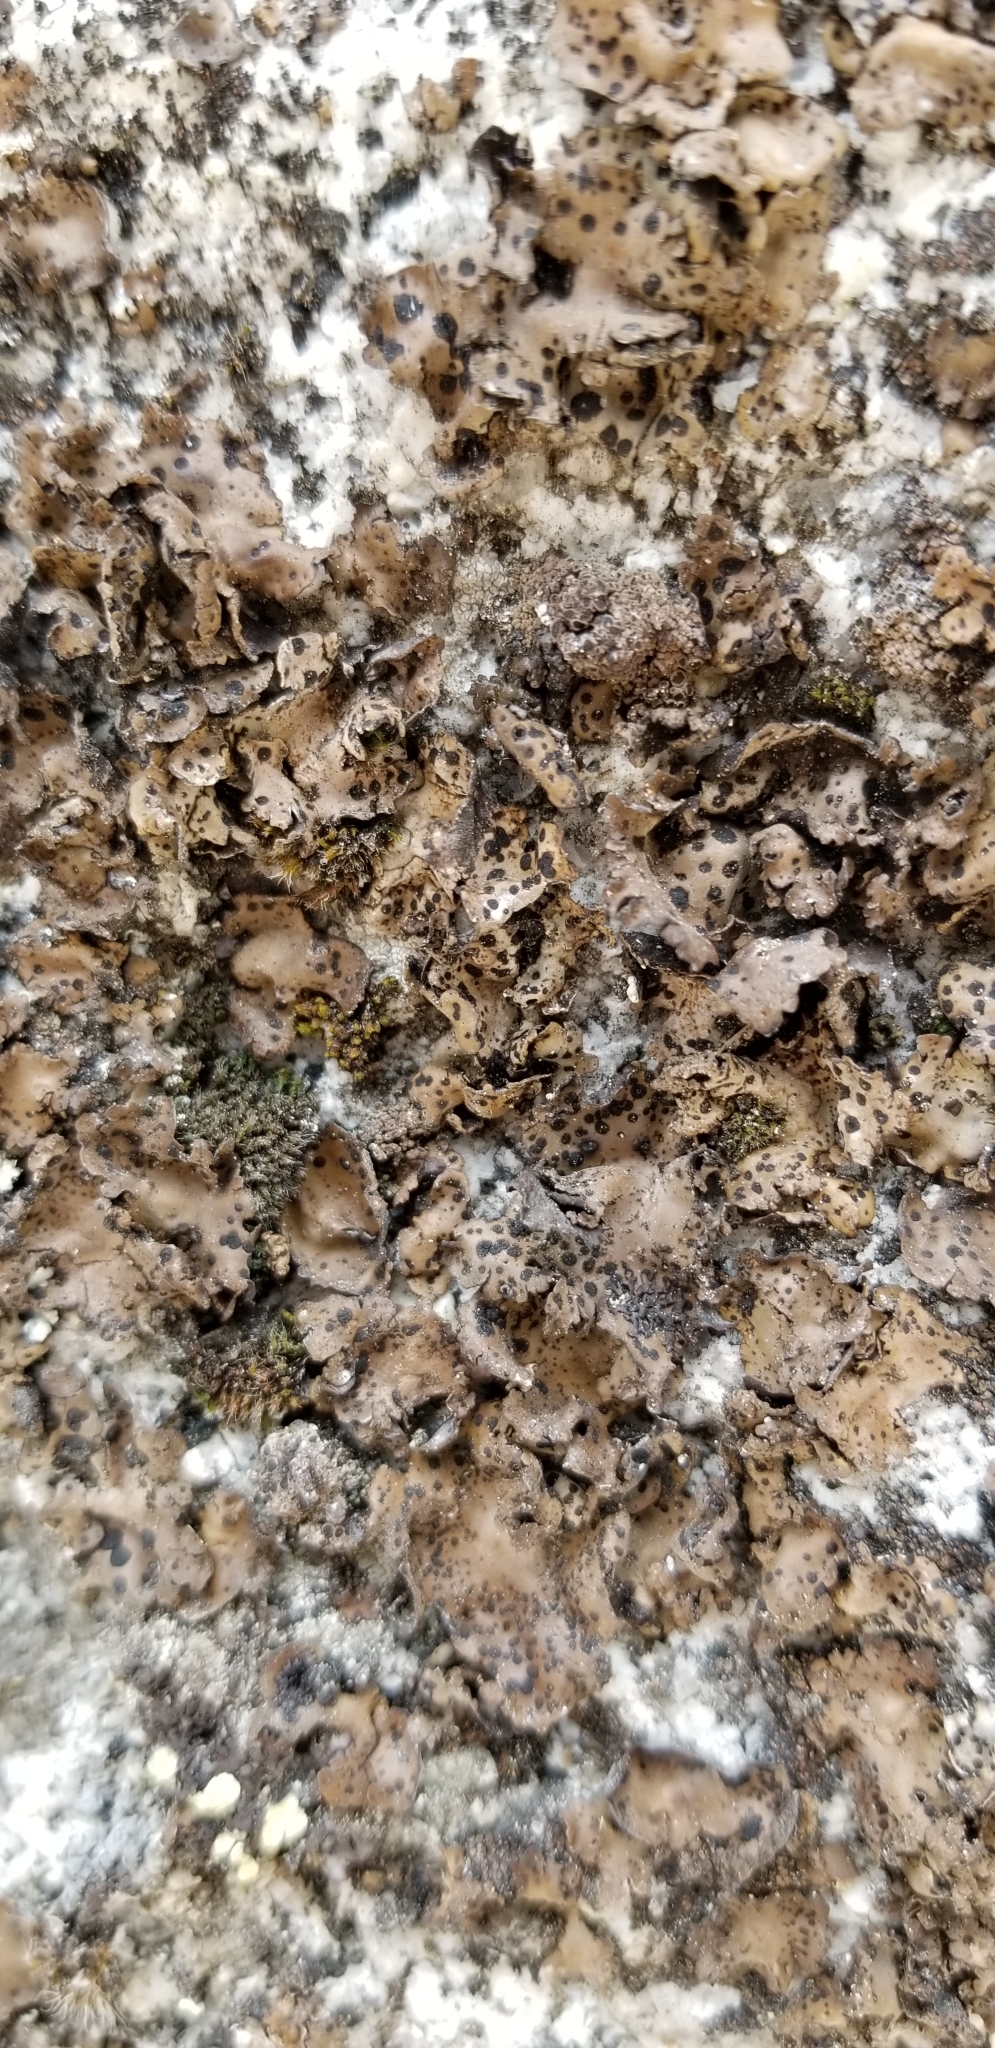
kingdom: Fungi
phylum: Ascomycota
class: Lecanoromycetes
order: Umbilicariales
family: Umbilicariaceae
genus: Umbilicaria
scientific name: Umbilicaria phaea
